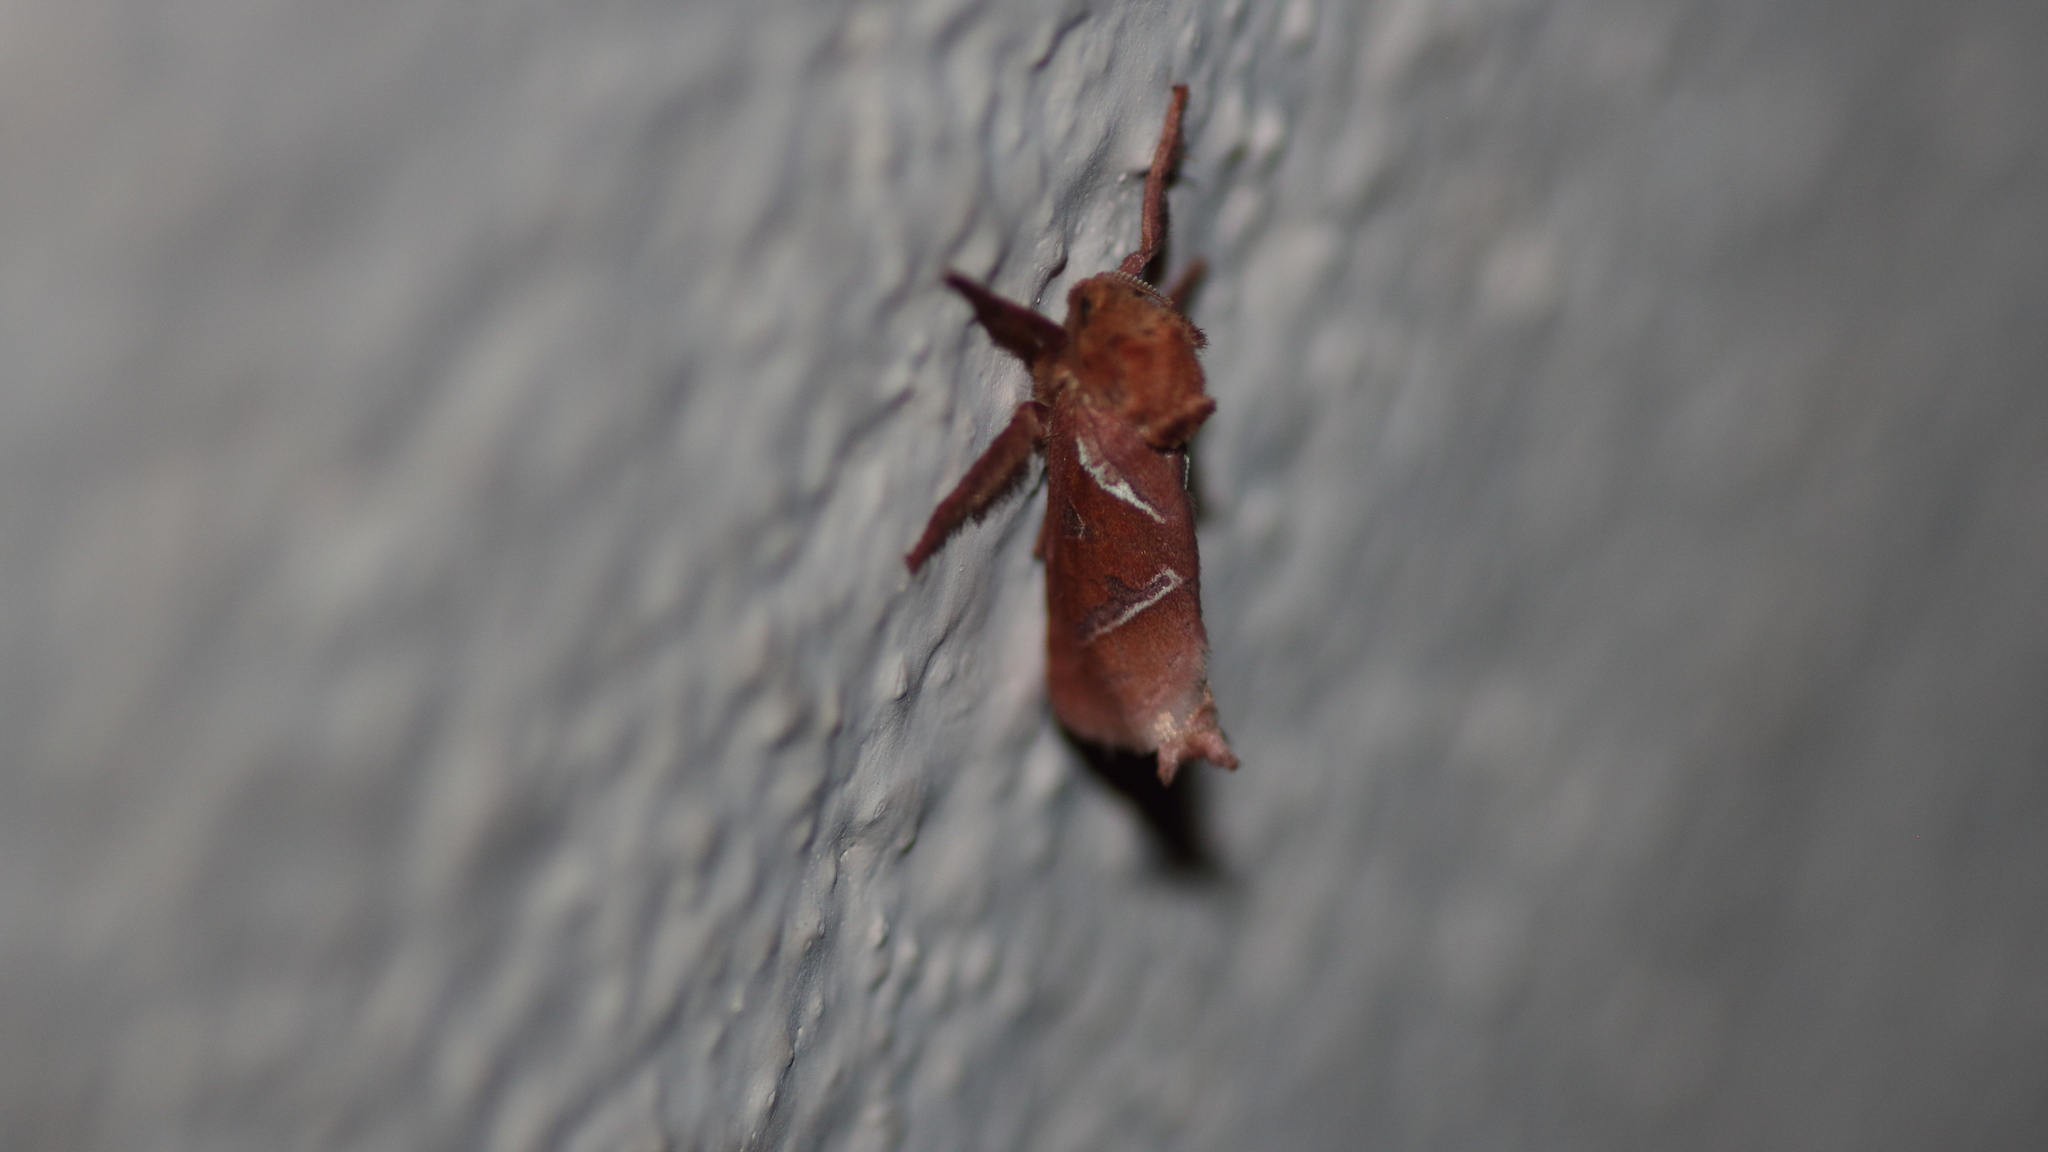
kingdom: Animalia
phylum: Arthropoda
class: Insecta
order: Lepidoptera
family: Hepialidae
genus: Triodia
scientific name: Triodia sylvina
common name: Orange swift
